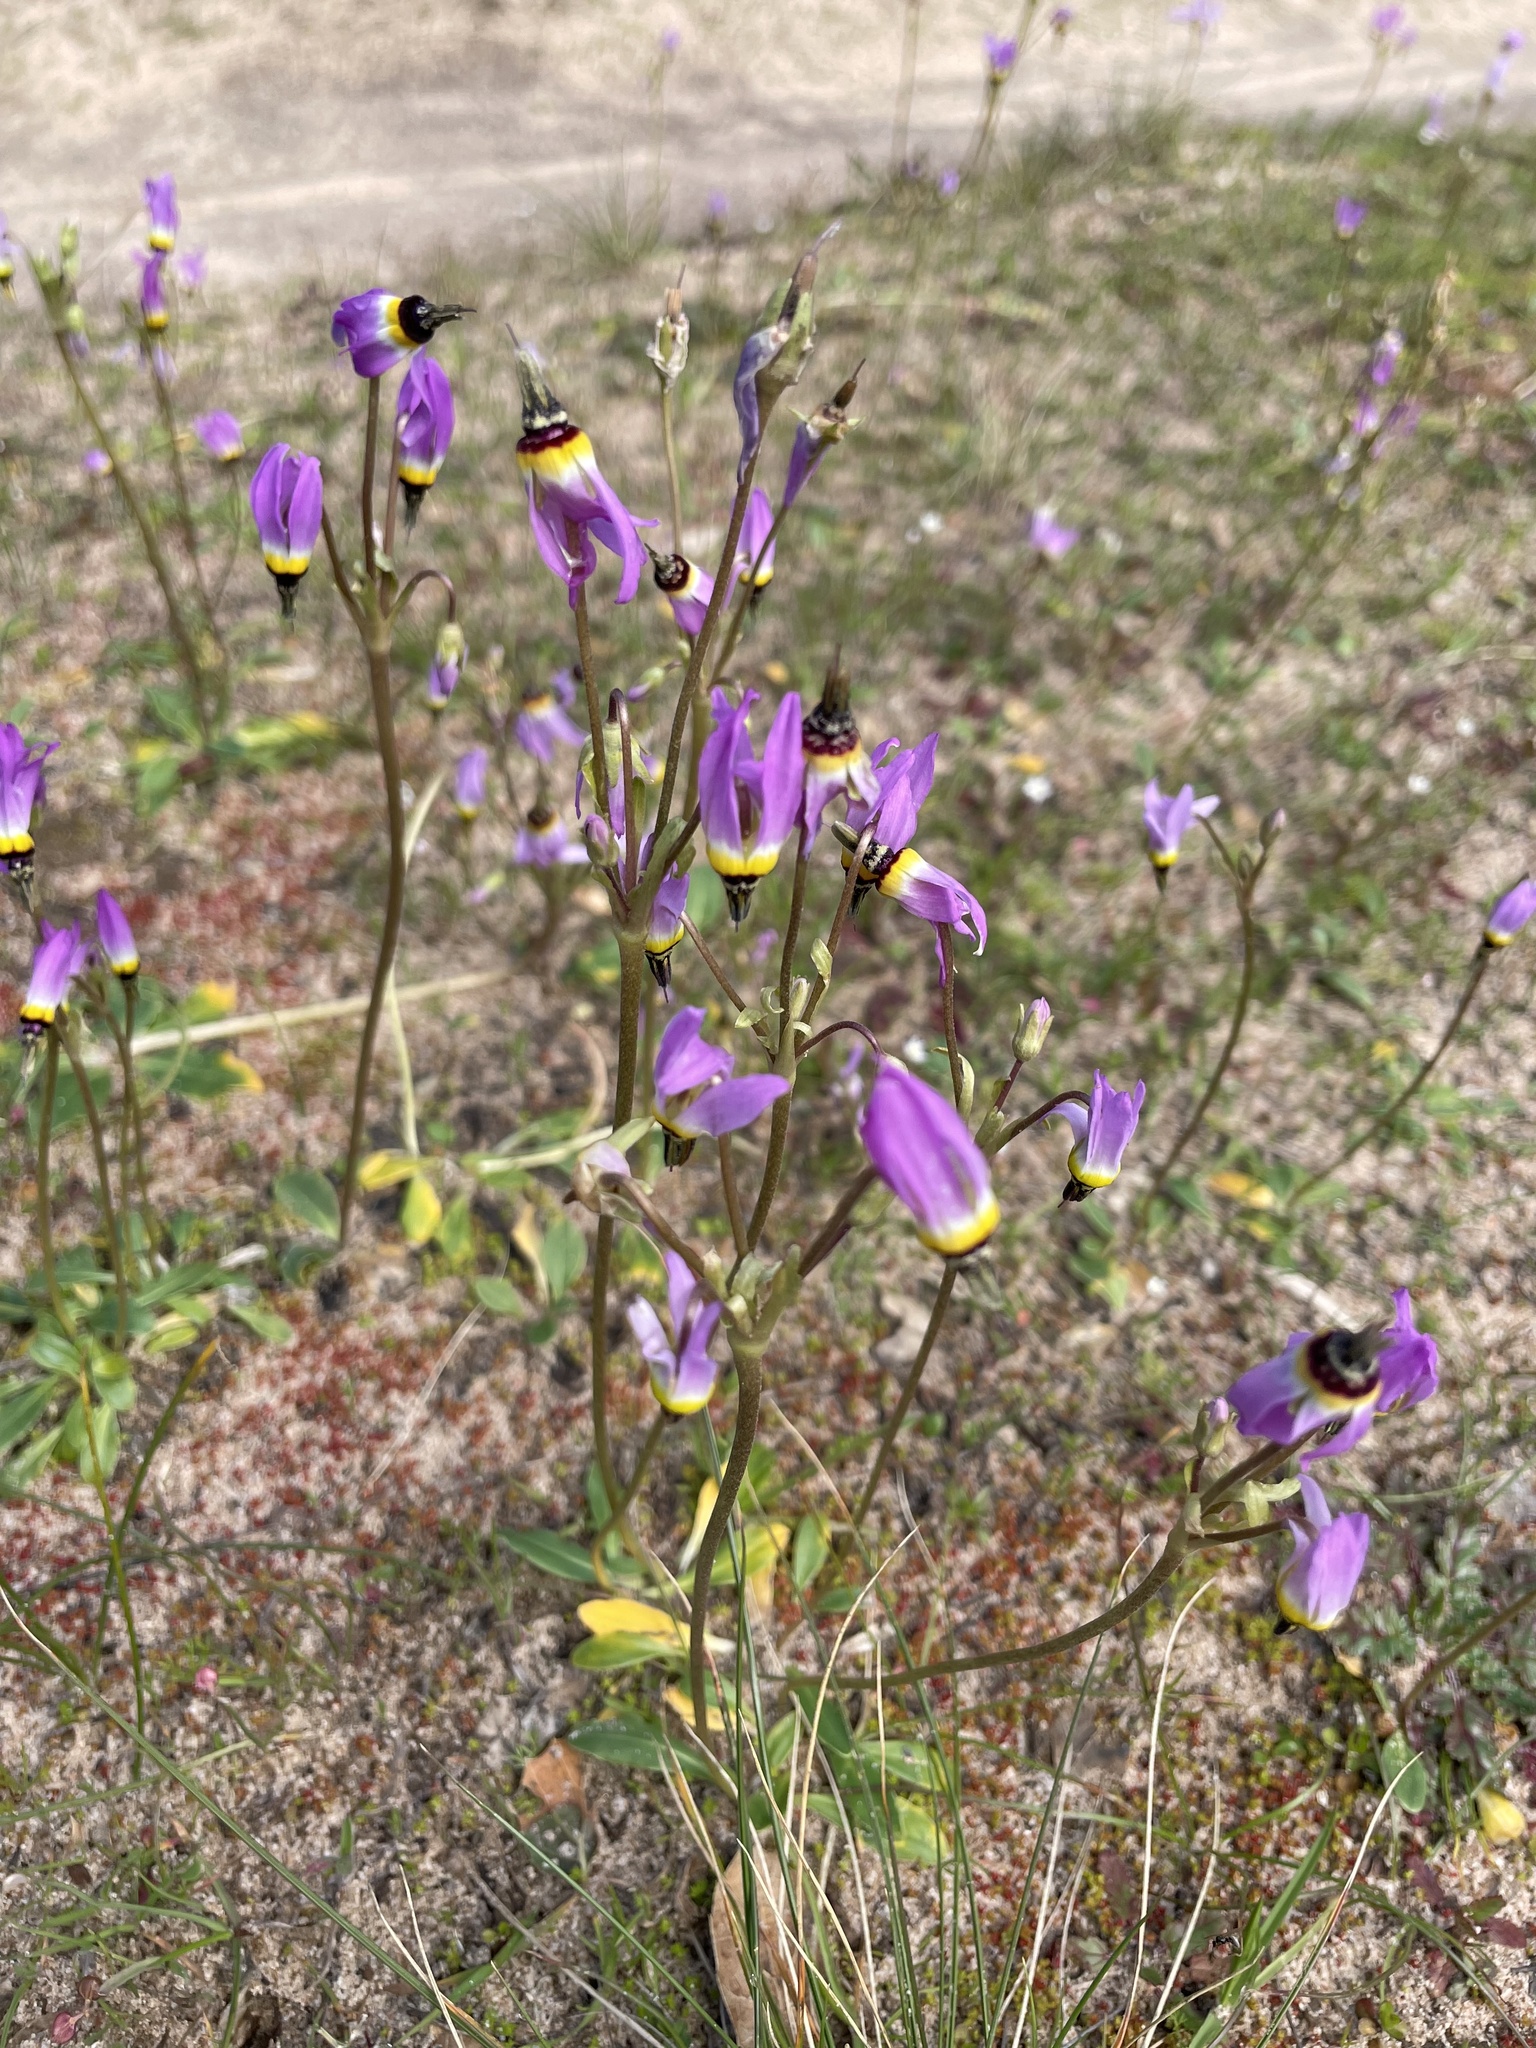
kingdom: Plantae
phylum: Tracheophyta
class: Magnoliopsida
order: Ericales
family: Primulaceae
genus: Dodecatheon
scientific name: Dodecatheon clevelandii
